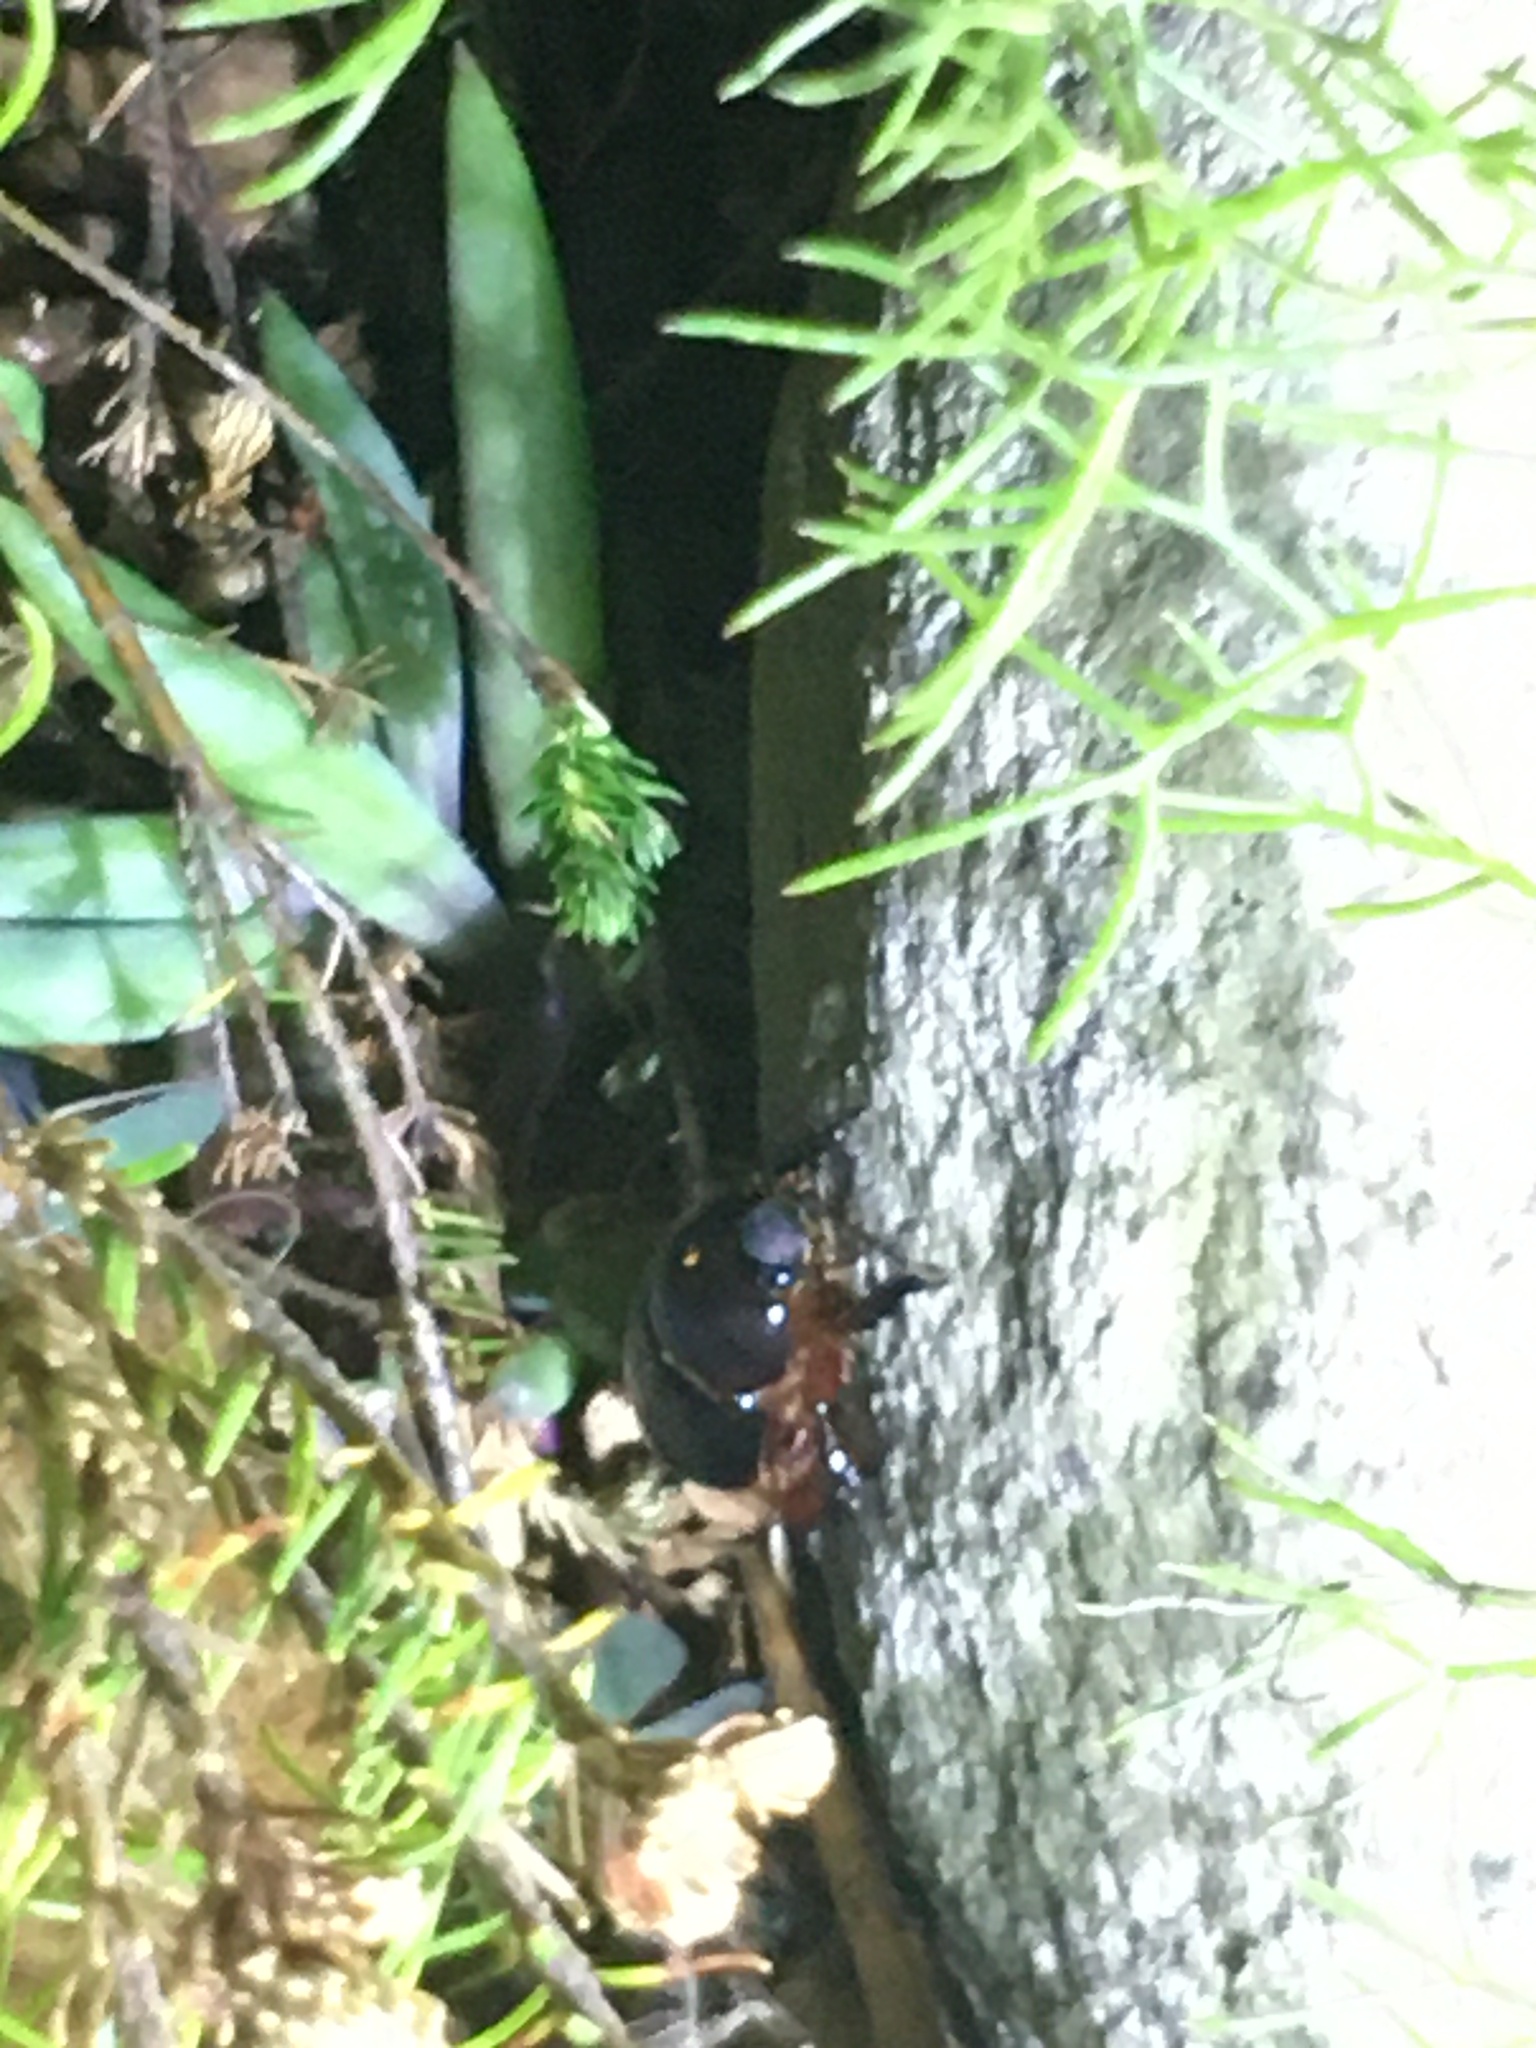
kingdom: Animalia
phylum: Arthropoda
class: Insecta
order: Coleoptera
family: Scarabaeidae
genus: Temnorhynchus
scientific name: Temnorhynchus retusus
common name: Plate-faced beetle
